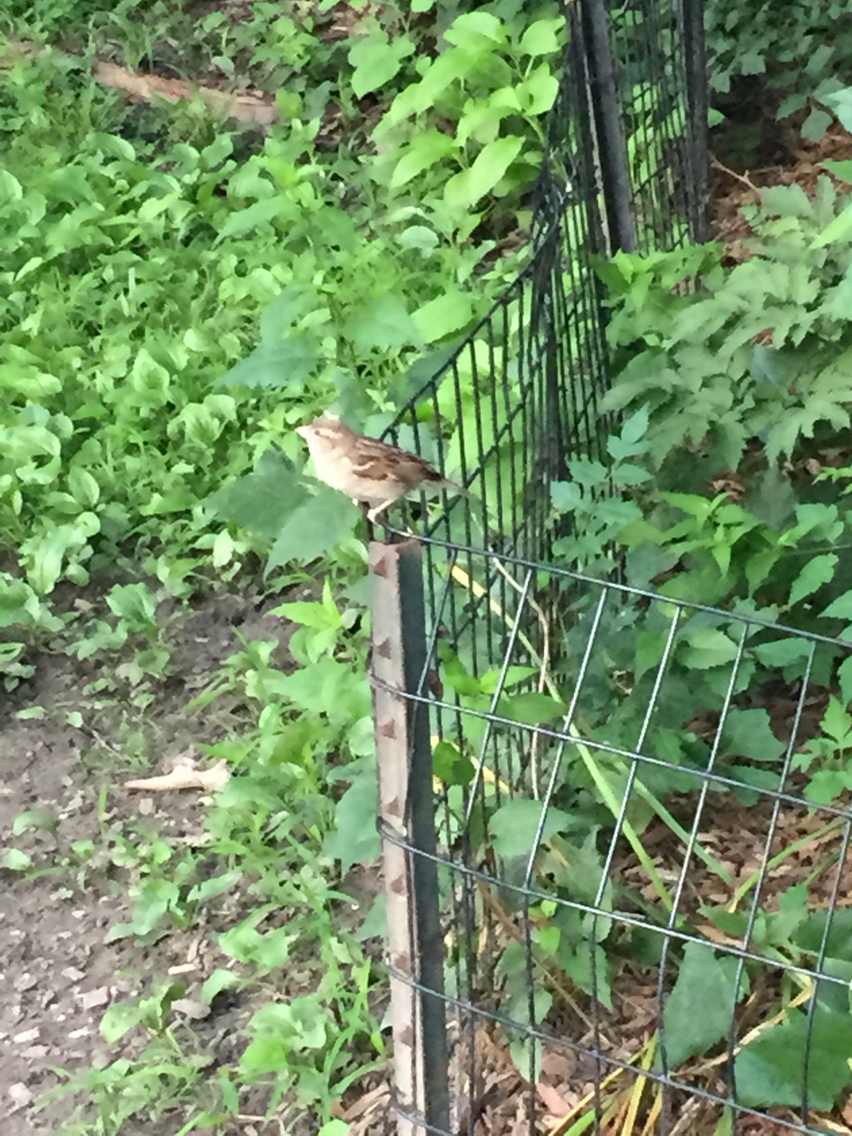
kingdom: Animalia
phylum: Chordata
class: Aves
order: Passeriformes
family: Passeridae
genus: Passer
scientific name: Passer domesticus
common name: House sparrow
